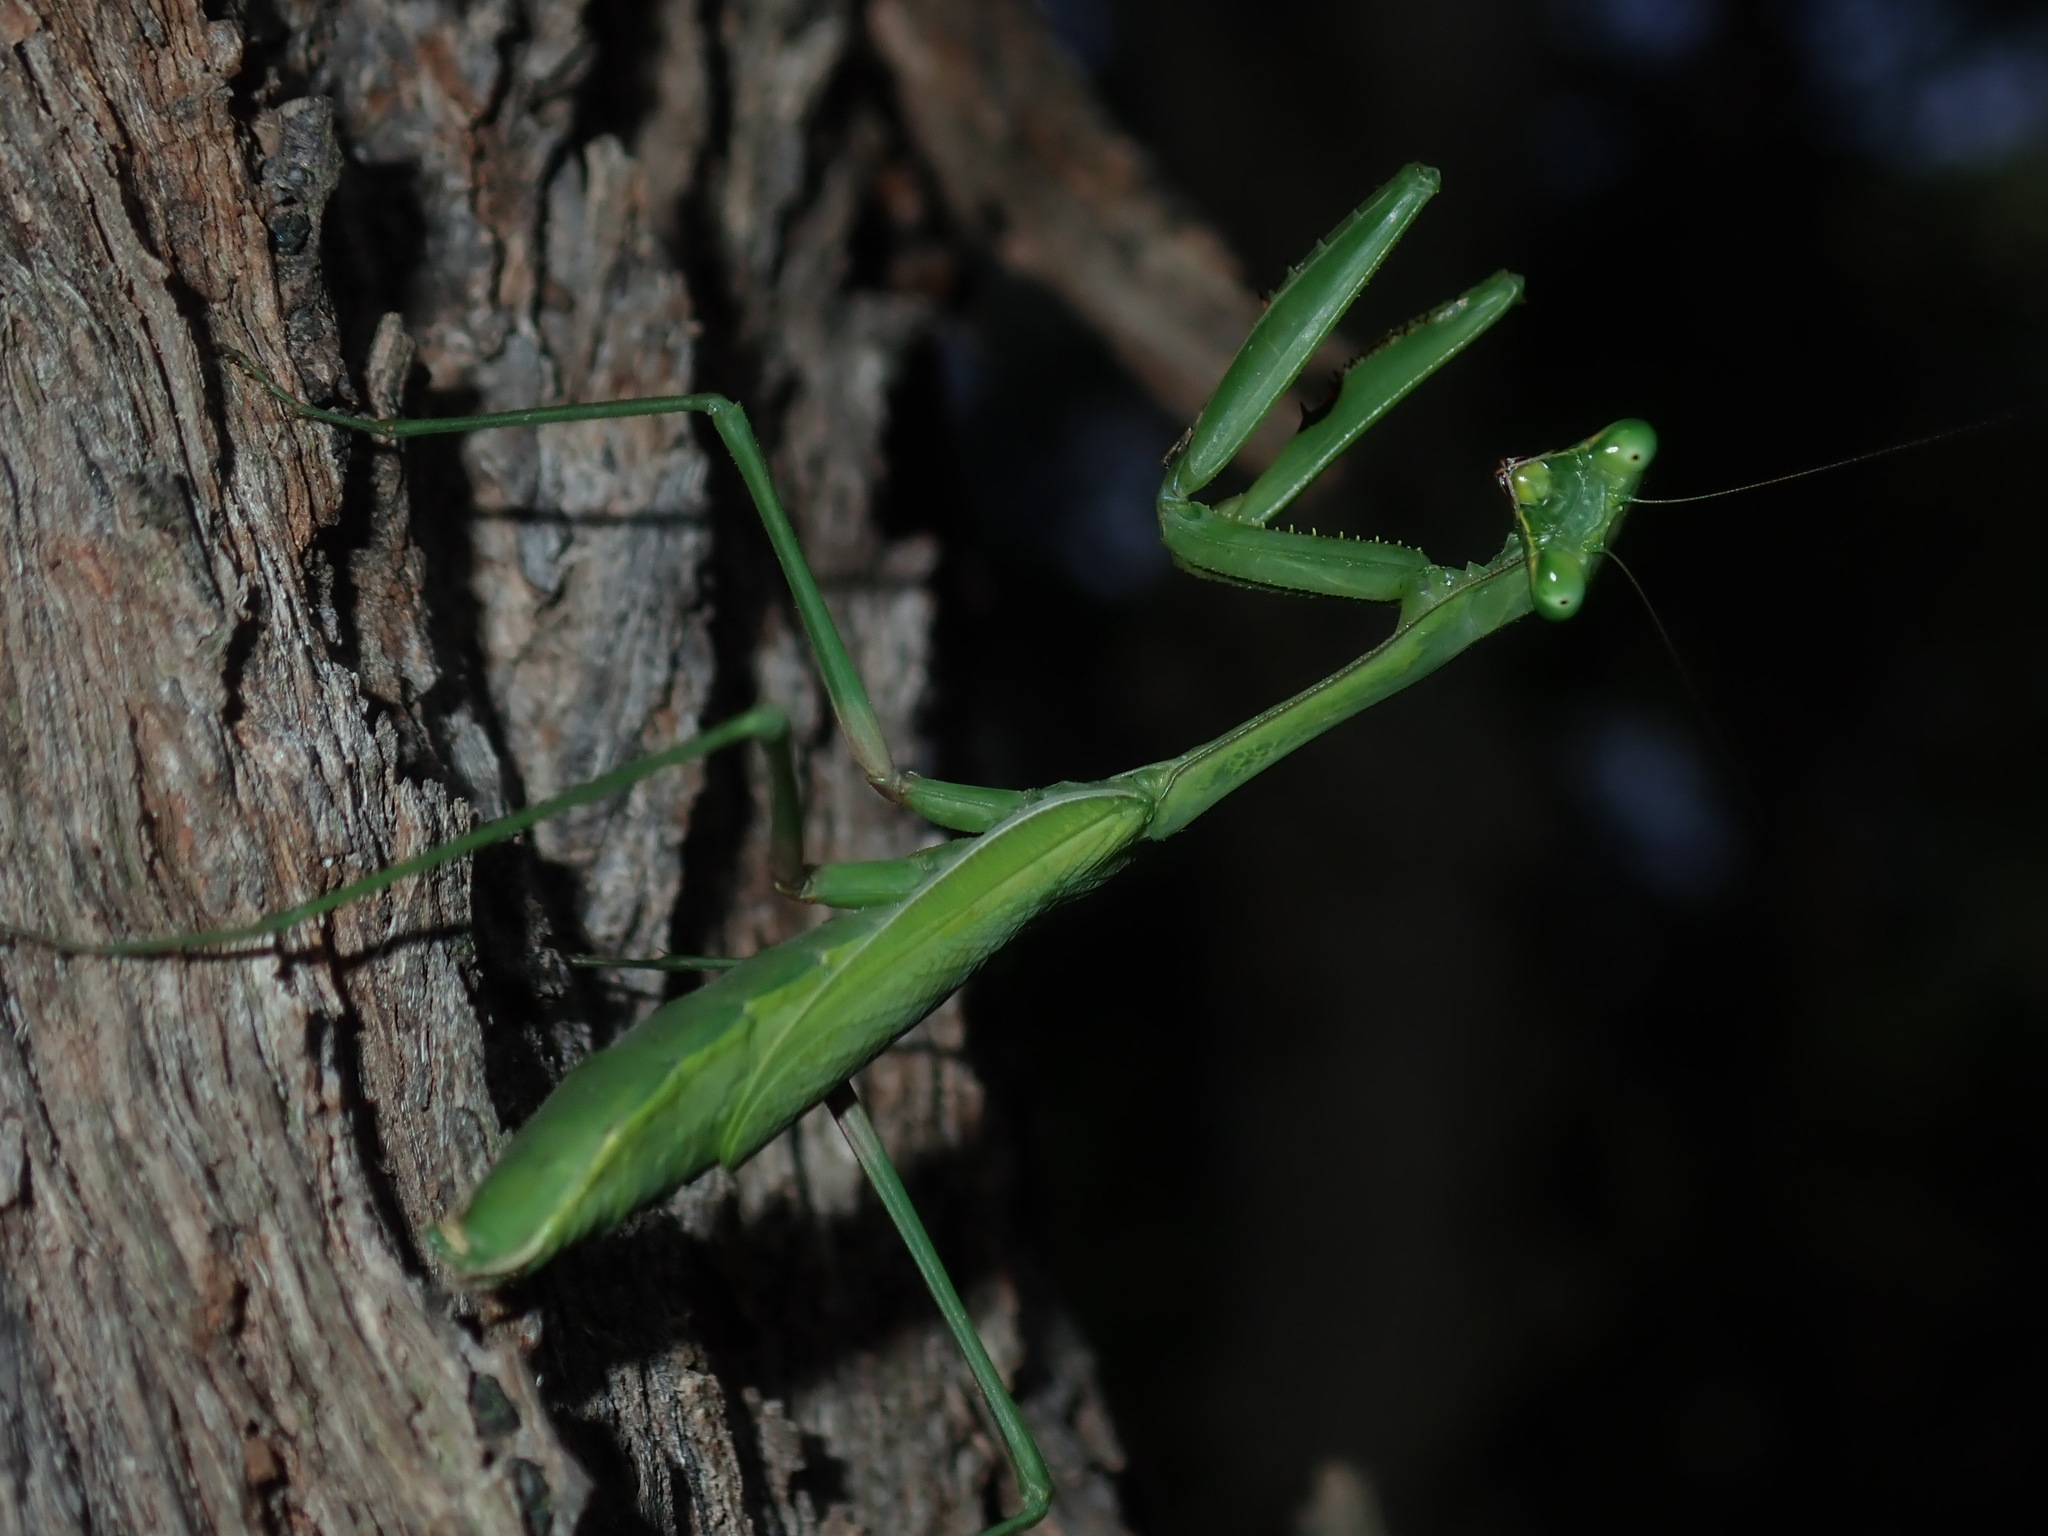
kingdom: Animalia
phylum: Arthropoda
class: Insecta
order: Mantodea
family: Mantidae
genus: Pseudomantis
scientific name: Pseudomantis albofimbriata
